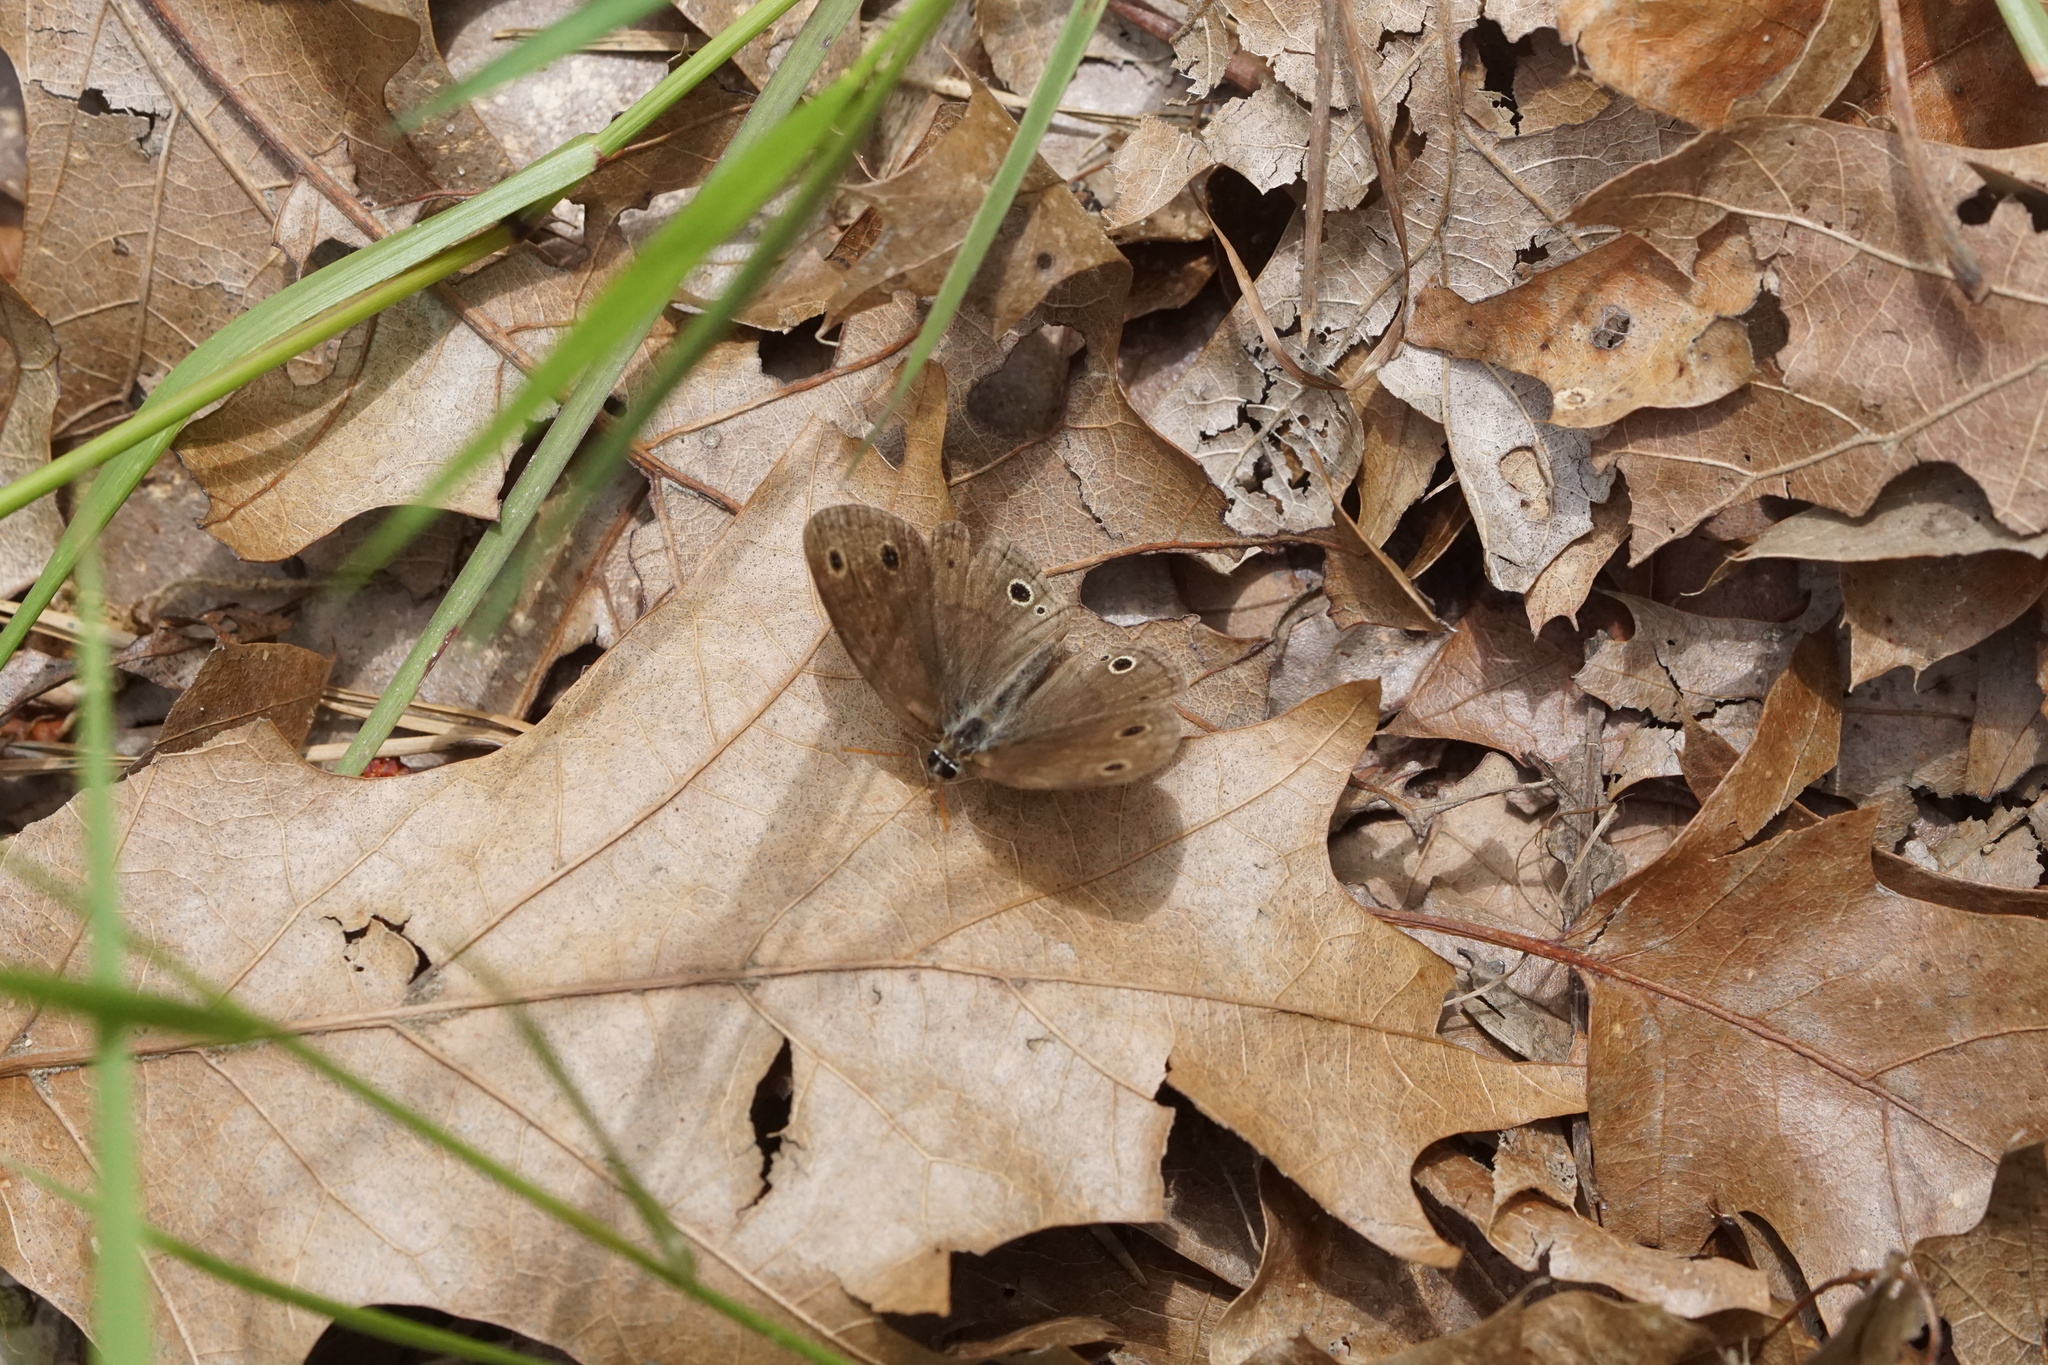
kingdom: Animalia
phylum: Arthropoda
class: Insecta
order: Lepidoptera
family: Nymphalidae
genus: Euptychia
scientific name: Euptychia cymela
